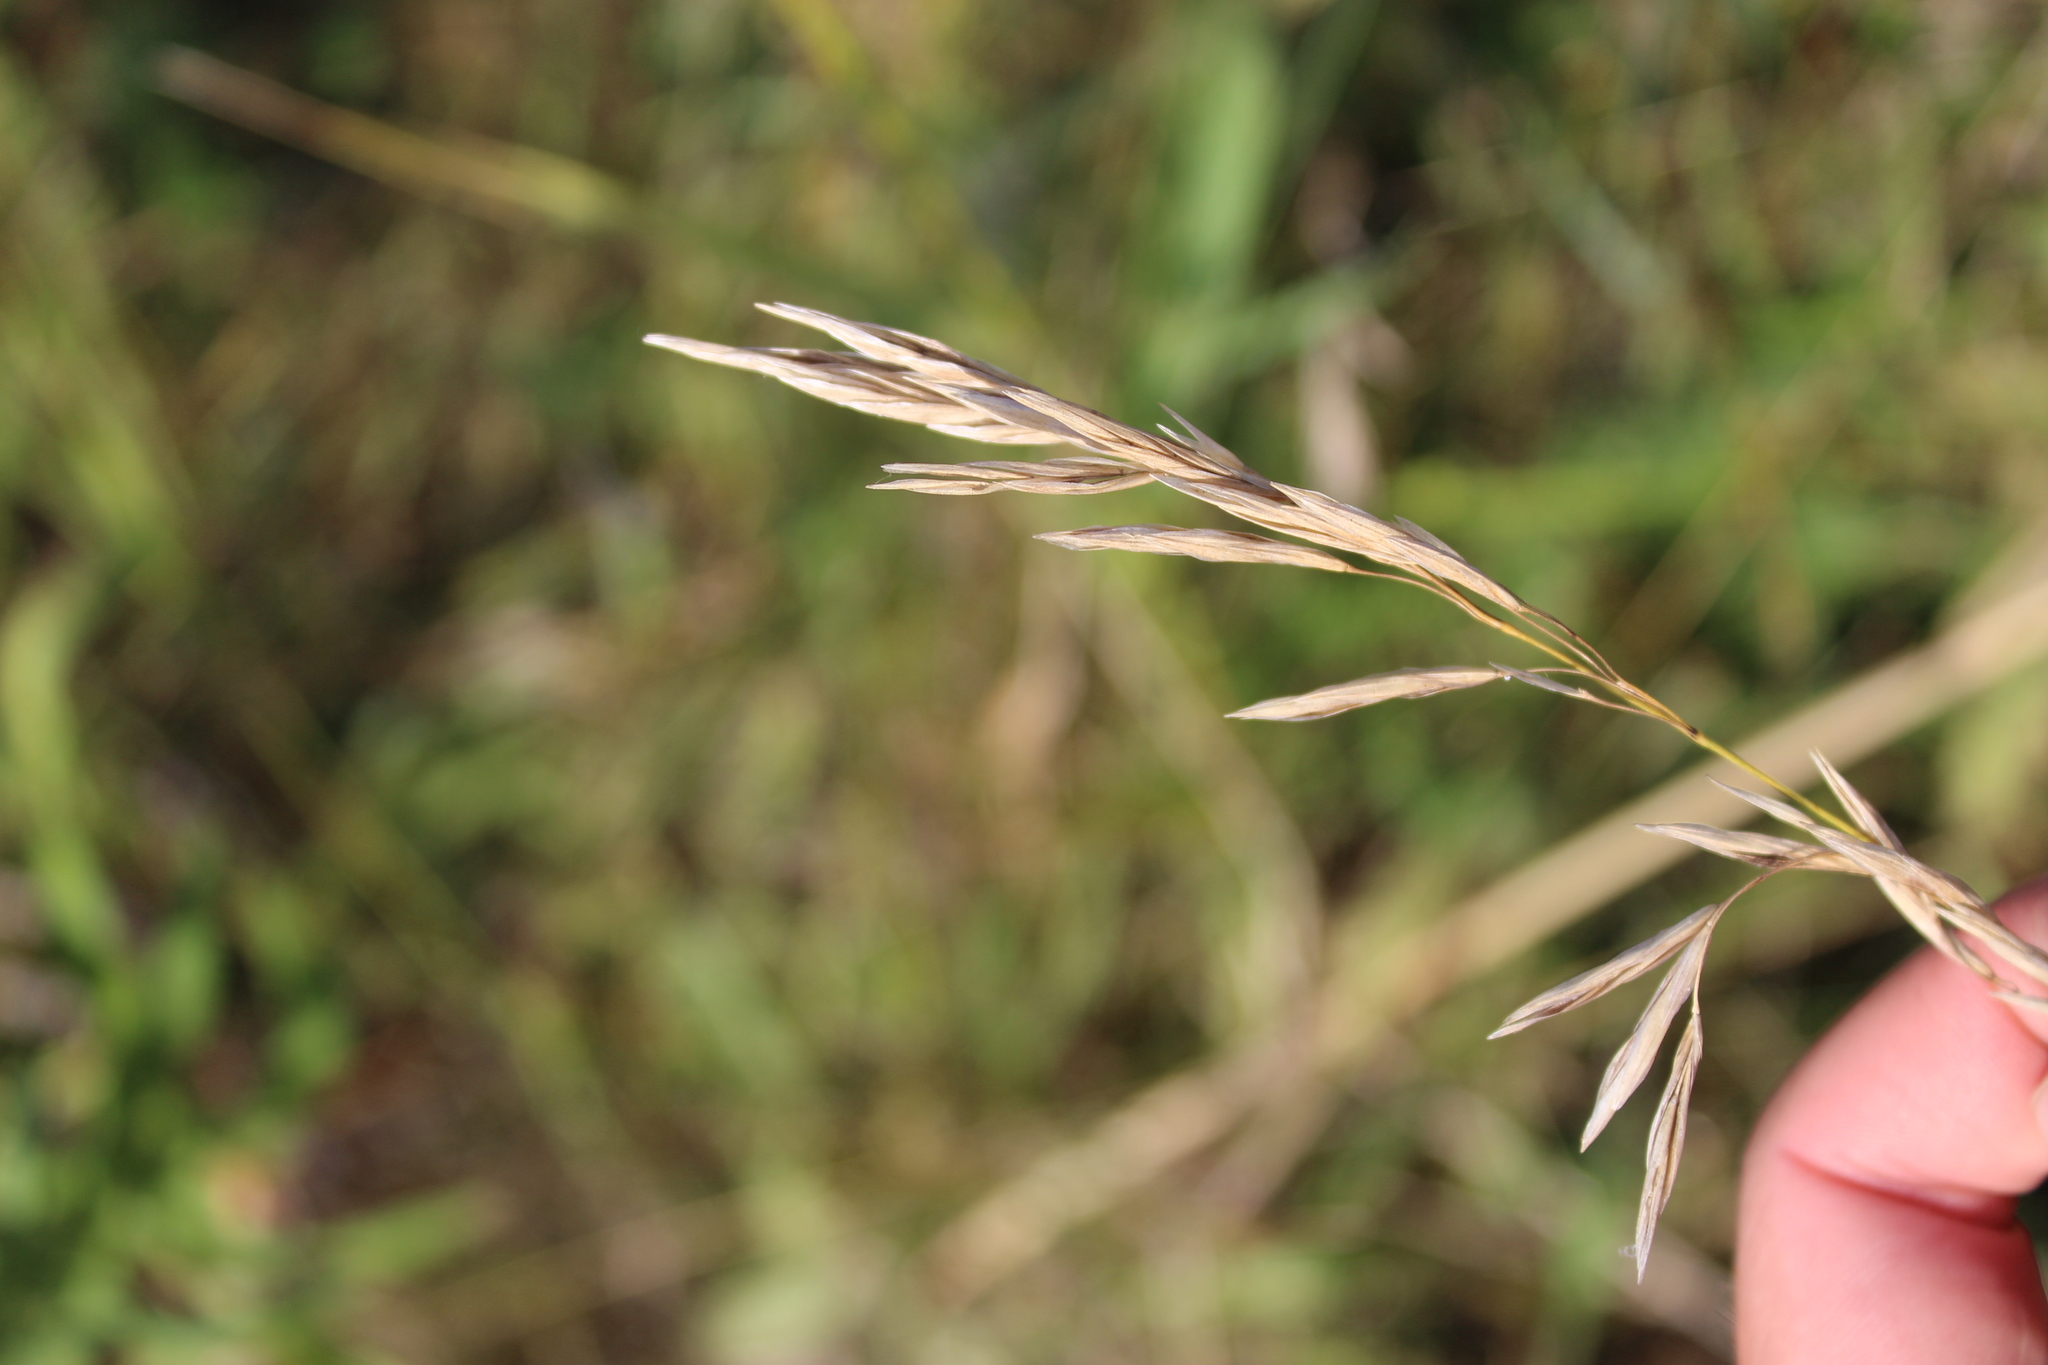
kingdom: Plantae
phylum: Tracheophyta
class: Liliopsida
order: Poales
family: Poaceae
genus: Bromus
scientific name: Bromus inermis
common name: Smooth brome
